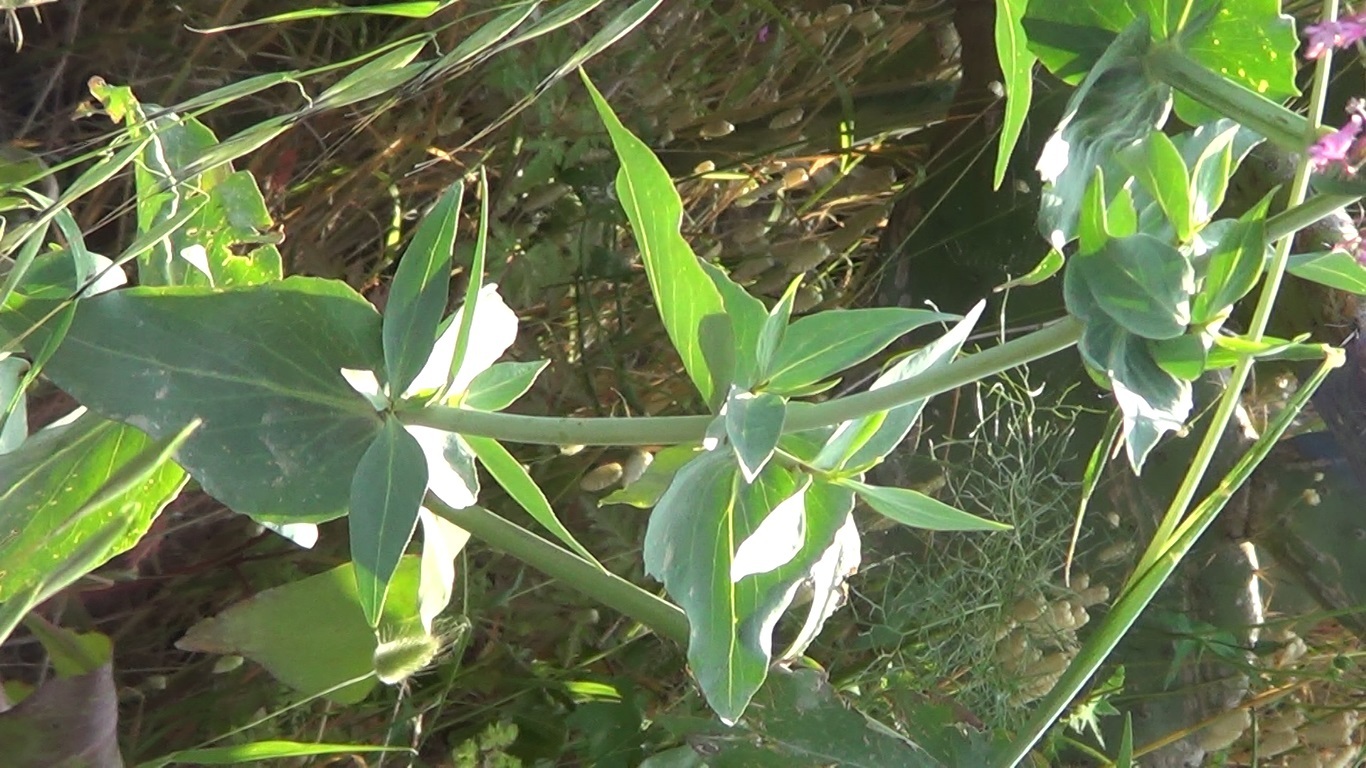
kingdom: Plantae
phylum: Tracheophyta
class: Magnoliopsida
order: Dipsacales
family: Caprifoliaceae
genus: Centranthus
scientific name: Centranthus ruber
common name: Red valerian
